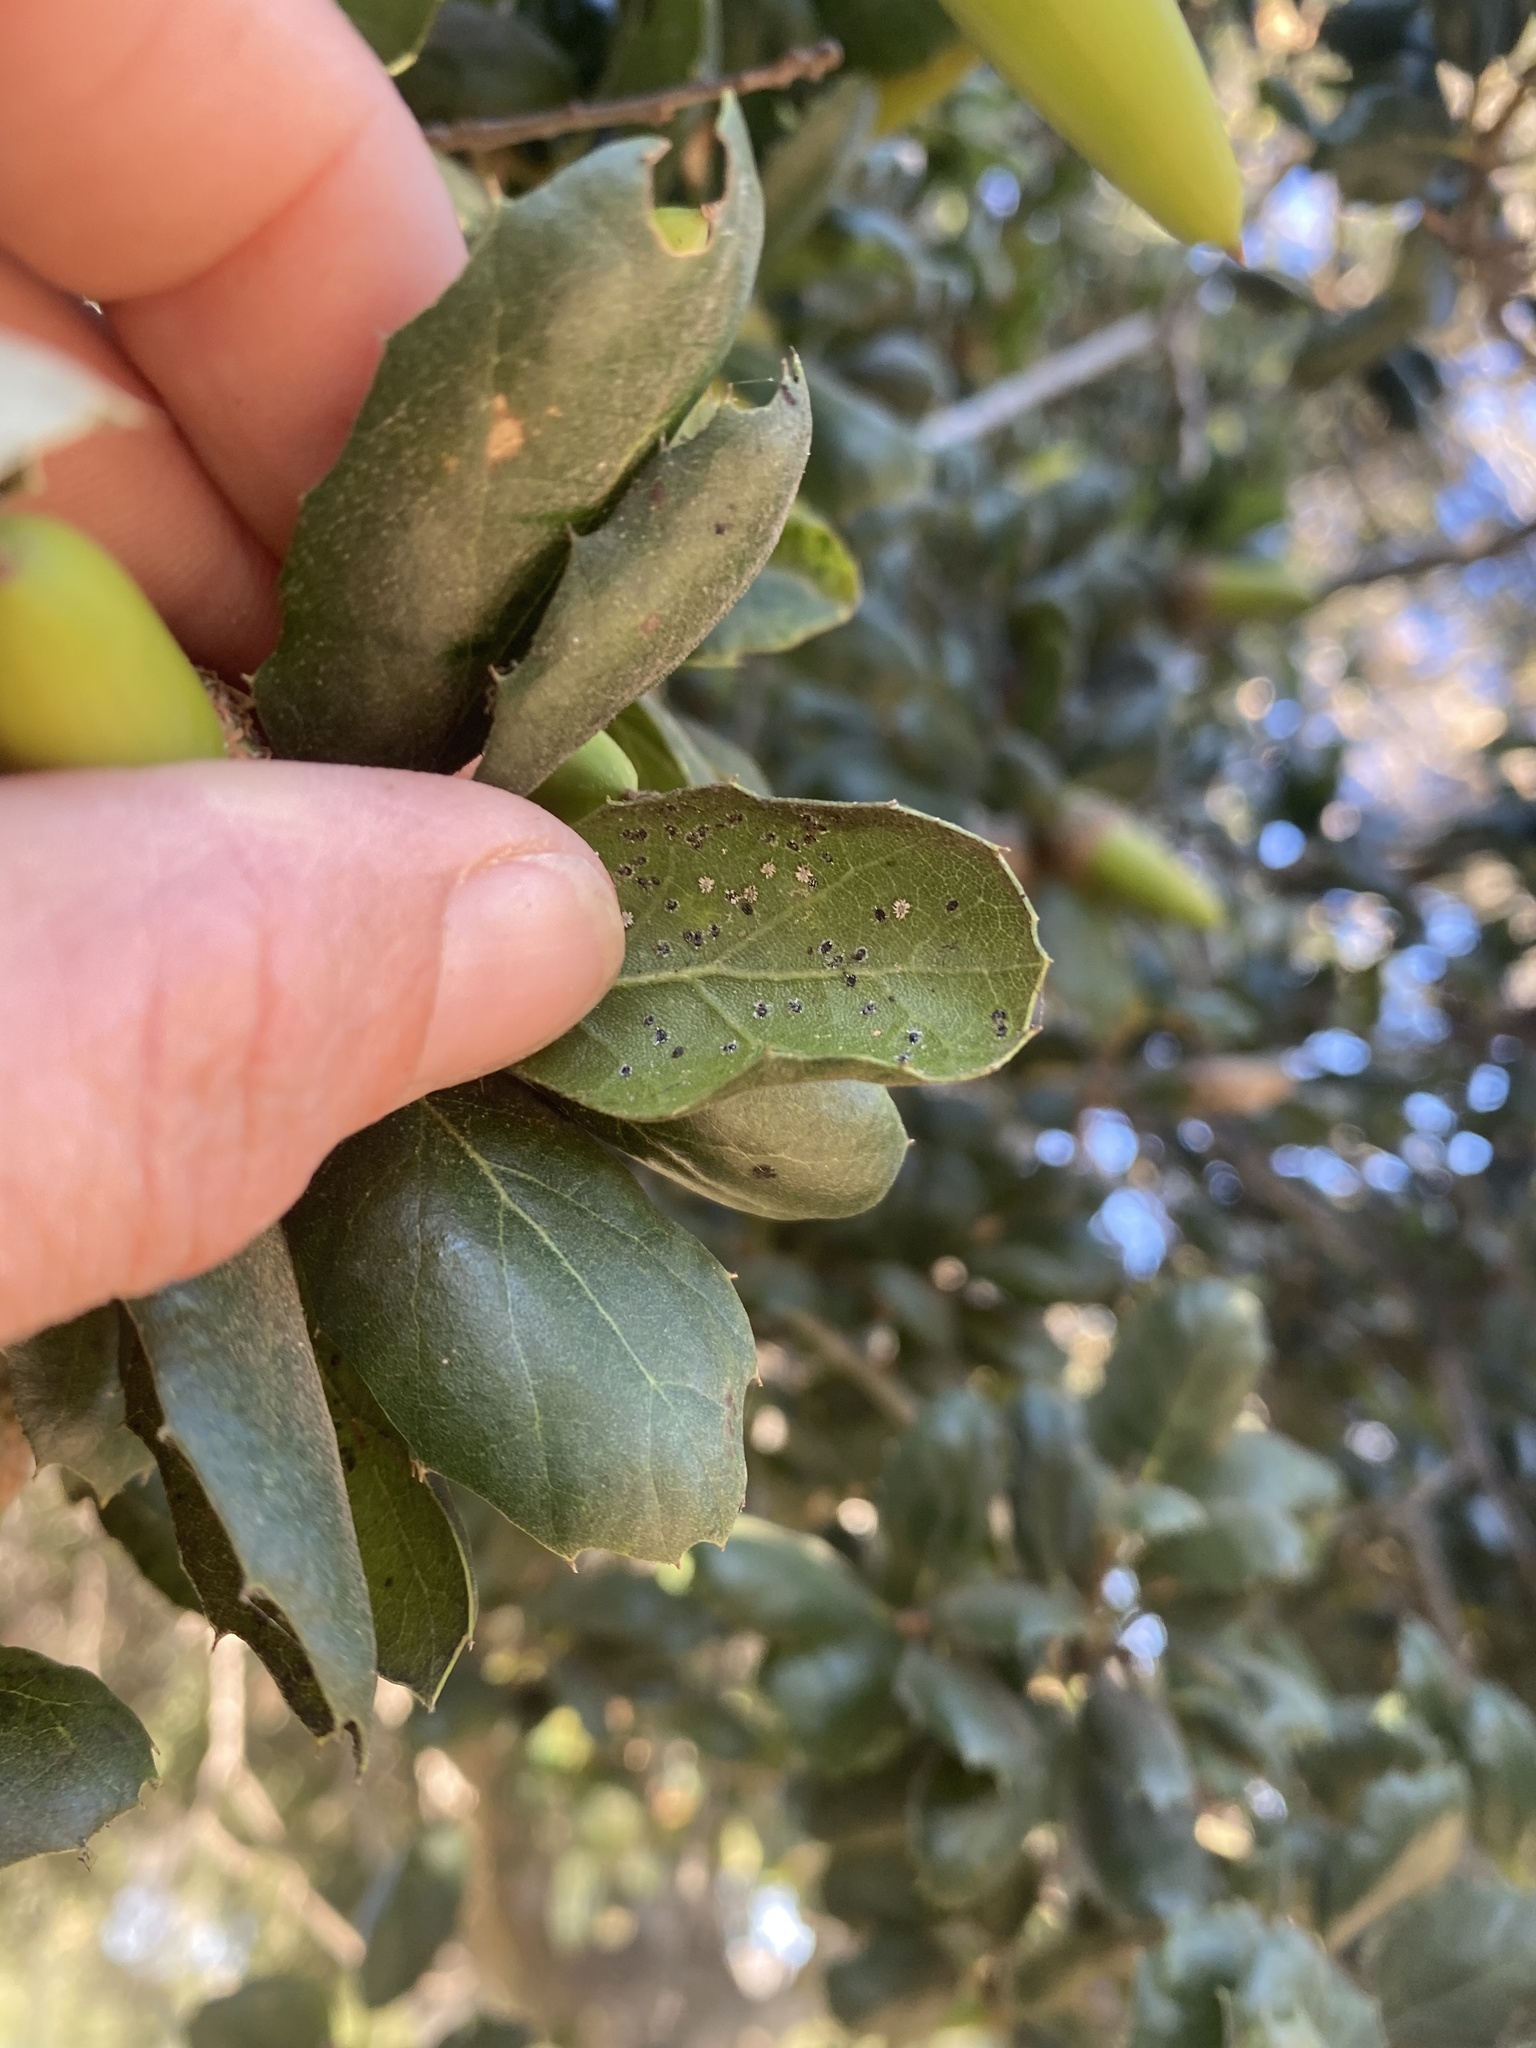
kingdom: Plantae
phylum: Tracheophyta
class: Magnoliopsida
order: Fagales
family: Fagaceae
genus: Quercus
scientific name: Quercus agrifolia
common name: California live oak
